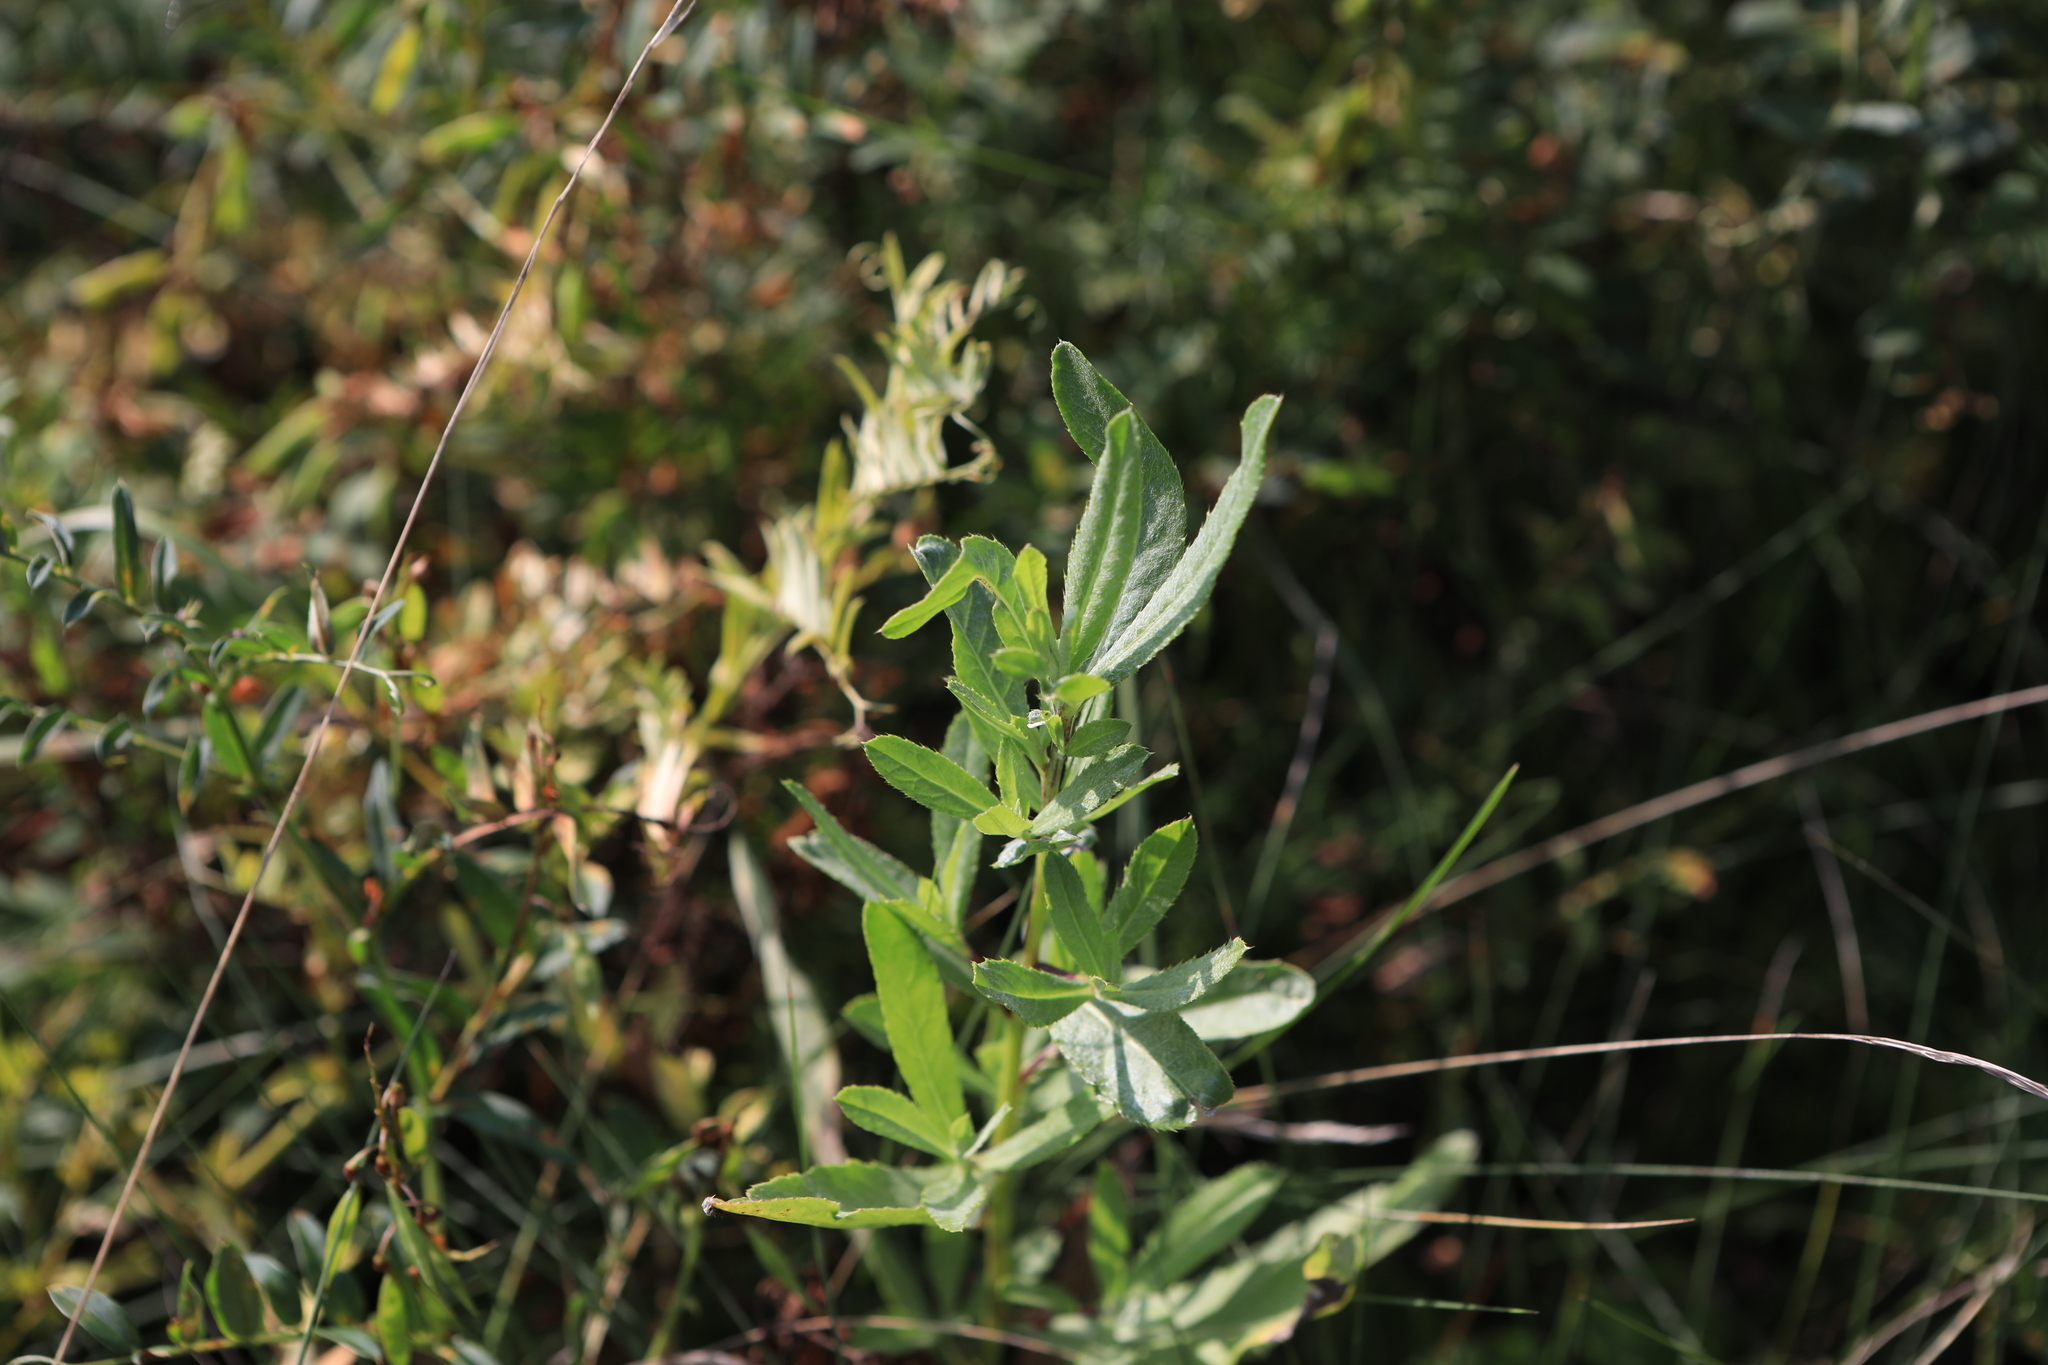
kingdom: Plantae
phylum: Tracheophyta
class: Magnoliopsida
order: Asterales
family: Asteraceae
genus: Cirsium
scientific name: Cirsium arvense
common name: Creeping thistle
